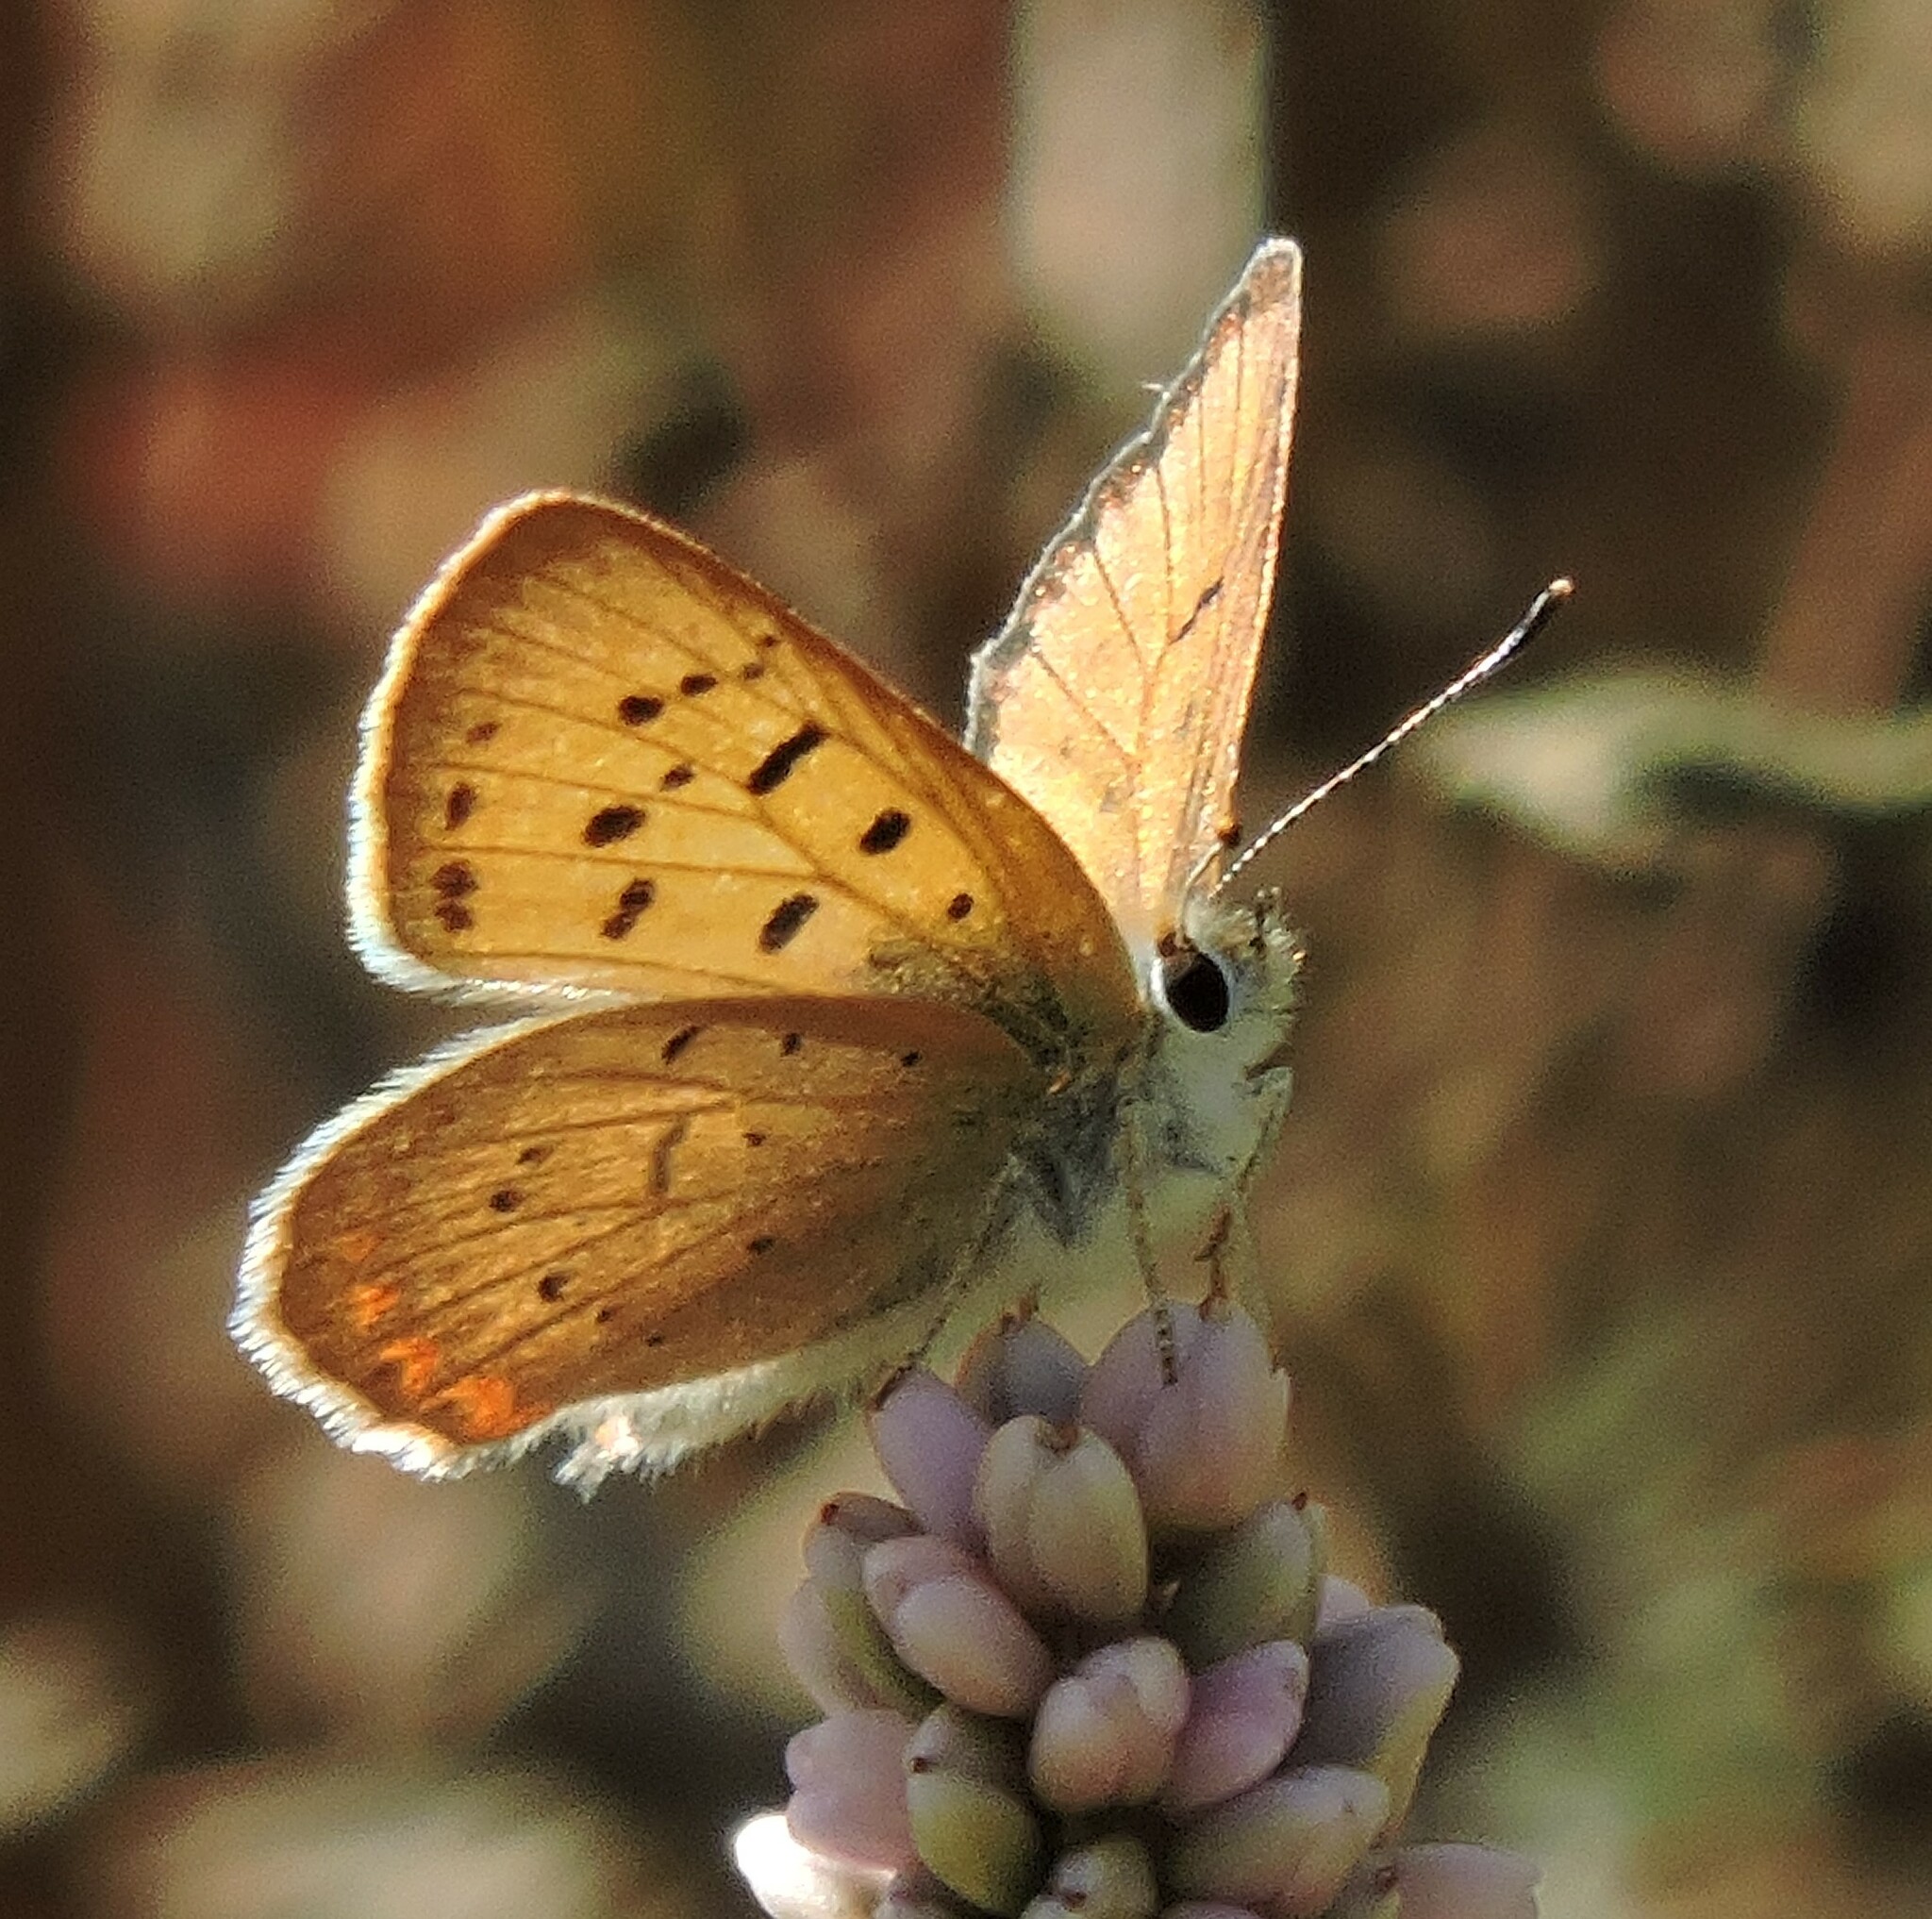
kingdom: Animalia
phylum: Arthropoda
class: Insecta
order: Lepidoptera
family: Lycaenidae
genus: Tharsalea
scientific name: Tharsalea helloides
